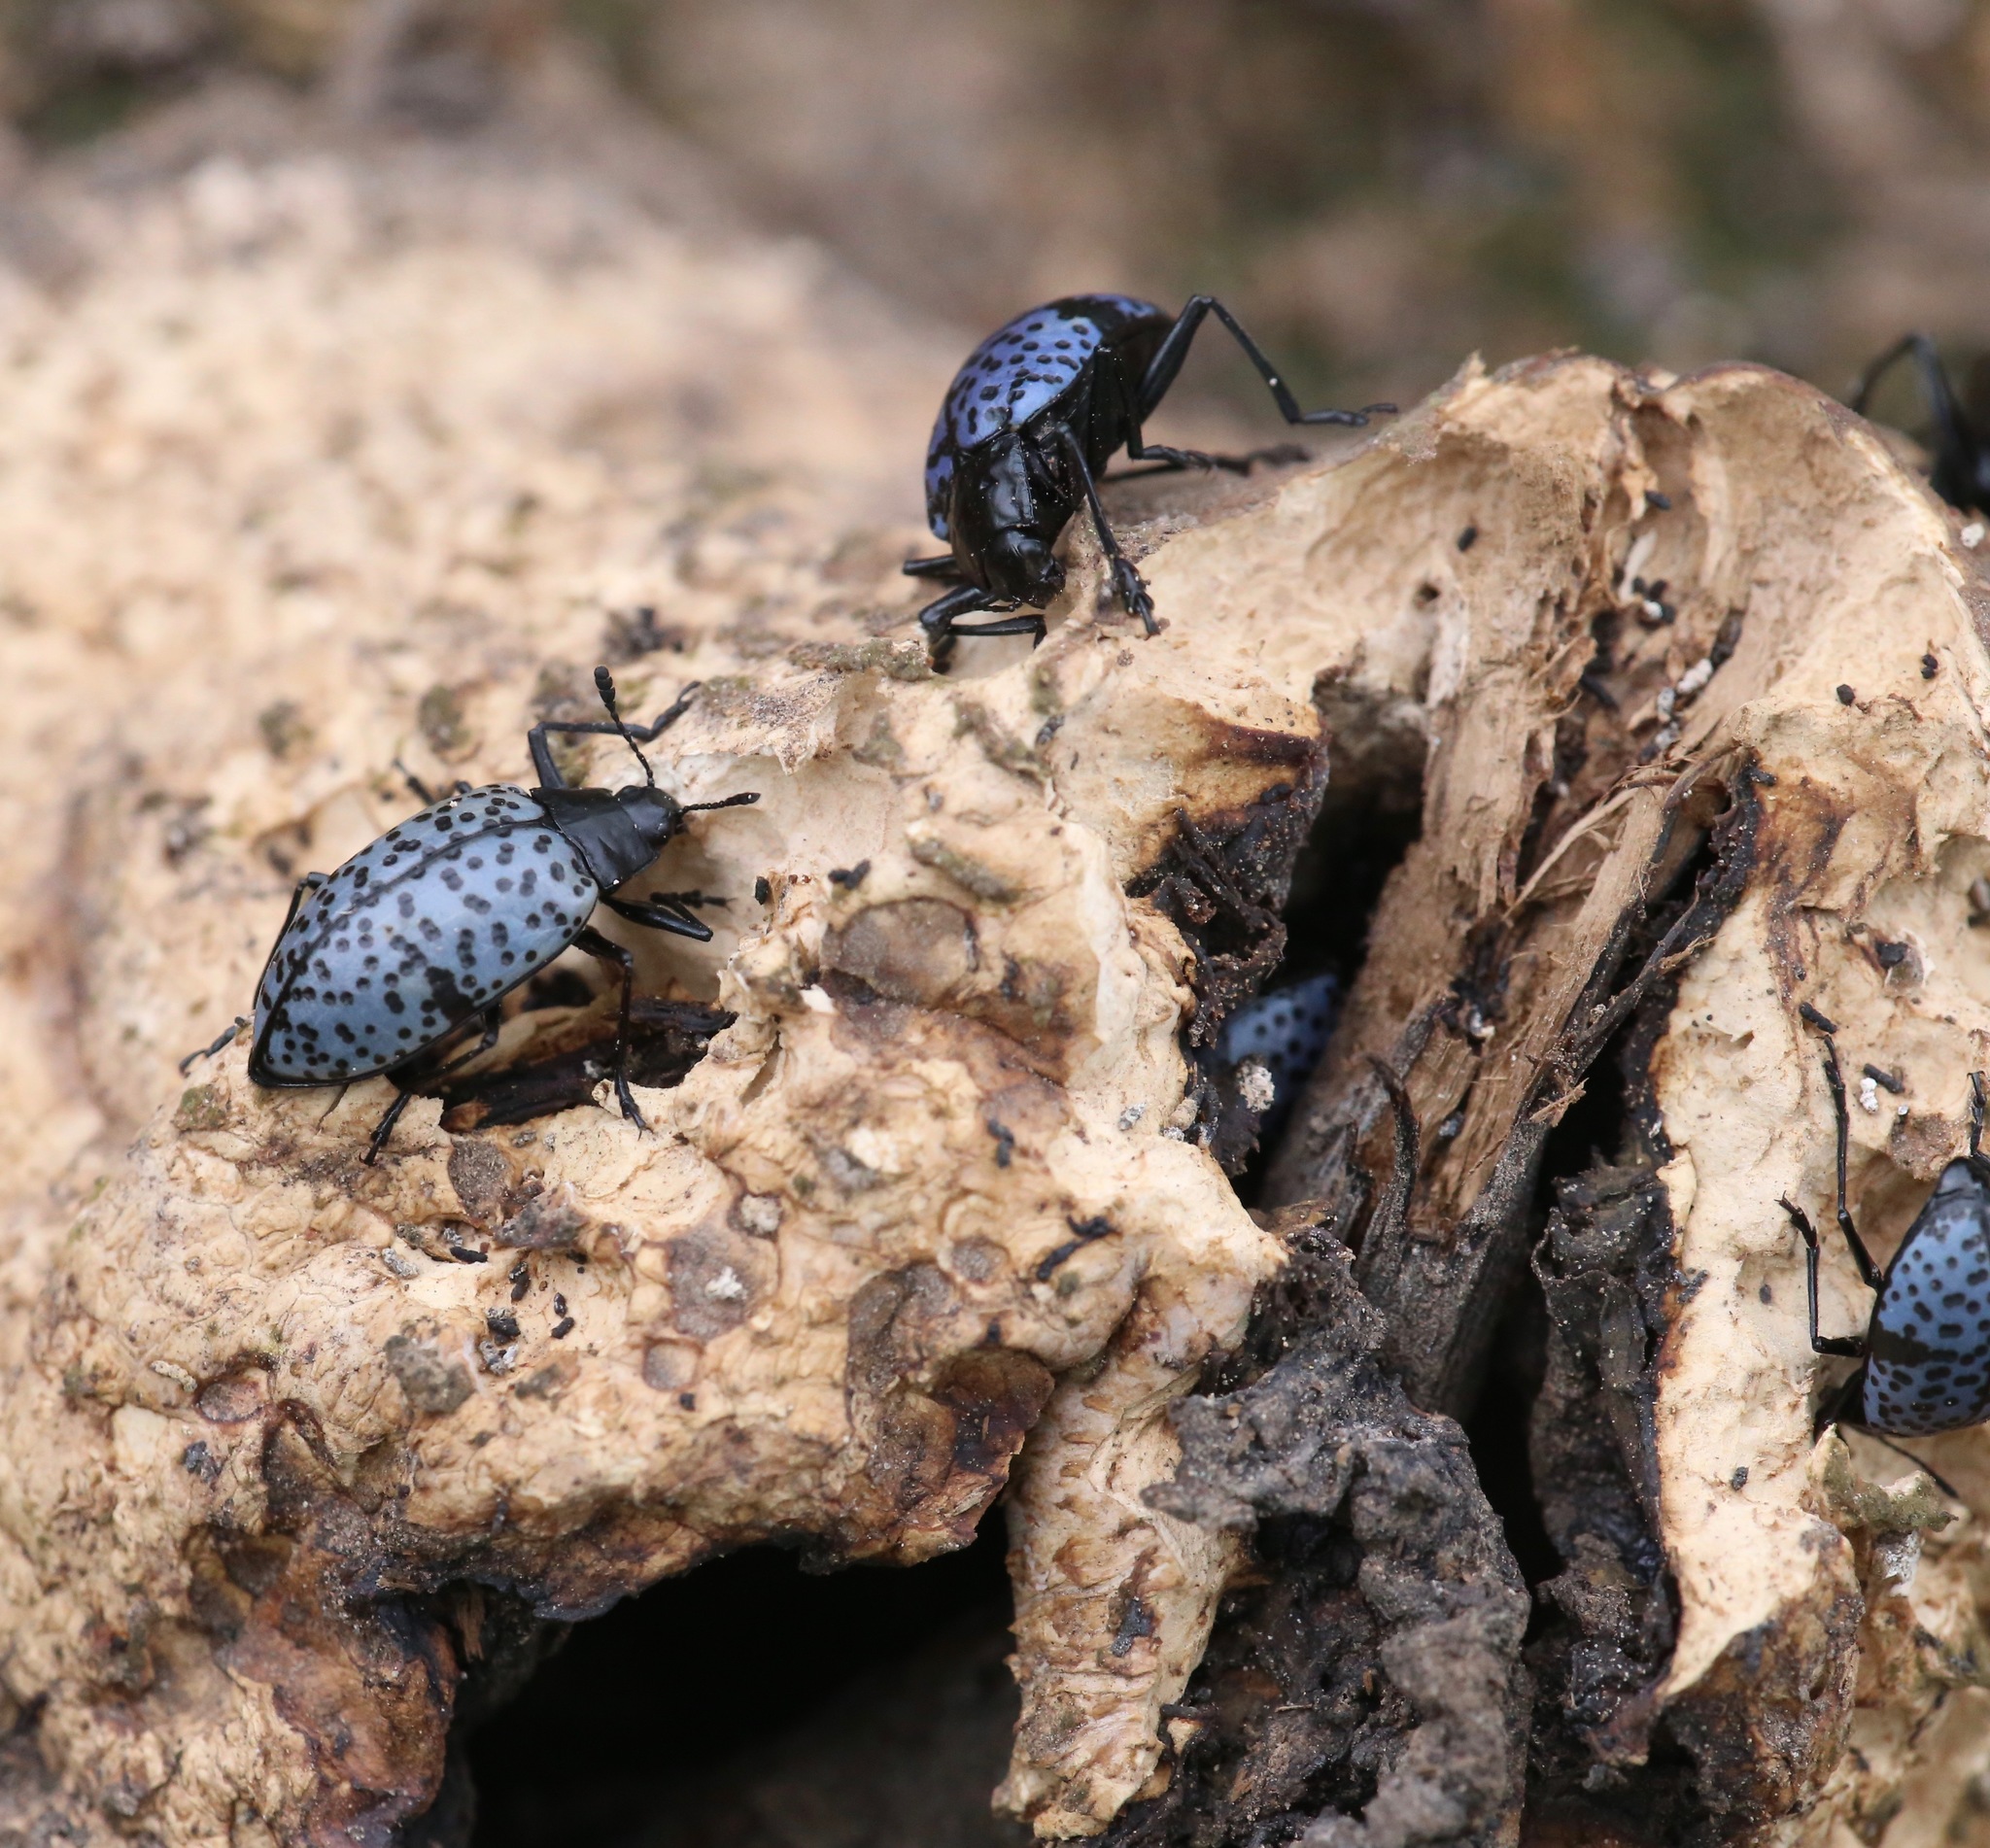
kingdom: Animalia
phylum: Arthropoda
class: Insecta
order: Coleoptera
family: Erotylidae
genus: Gibbifer
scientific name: Gibbifer californicus
